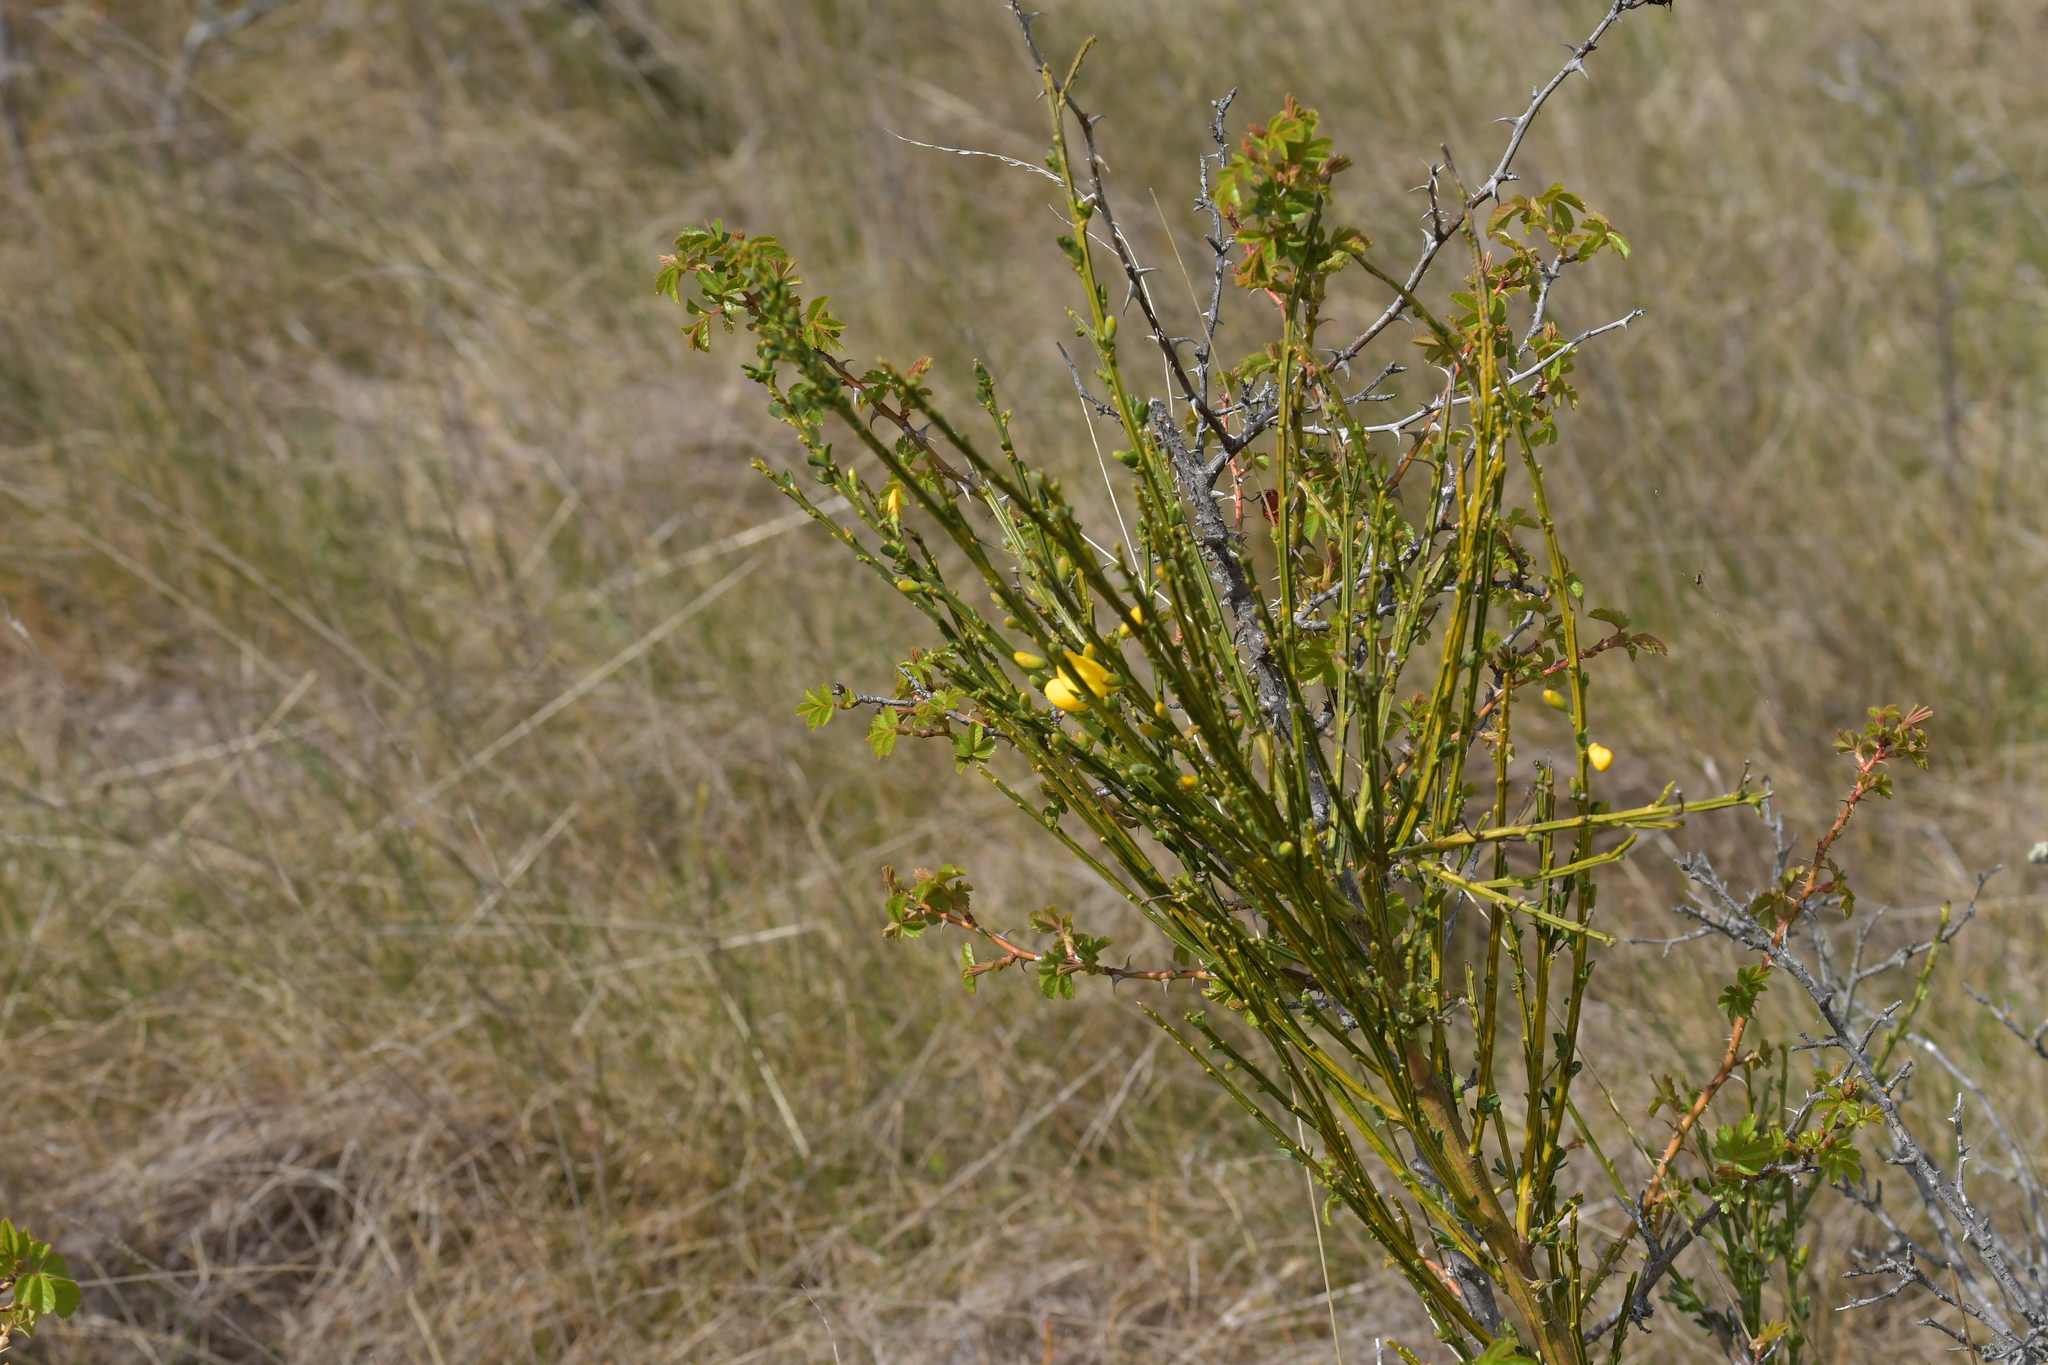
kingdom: Plantae
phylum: Tracheophyta
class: Magnoliopsida
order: Fabales
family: Fabaceae
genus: Cytisus
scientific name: Cytisus scoparius
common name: Scotch broom
